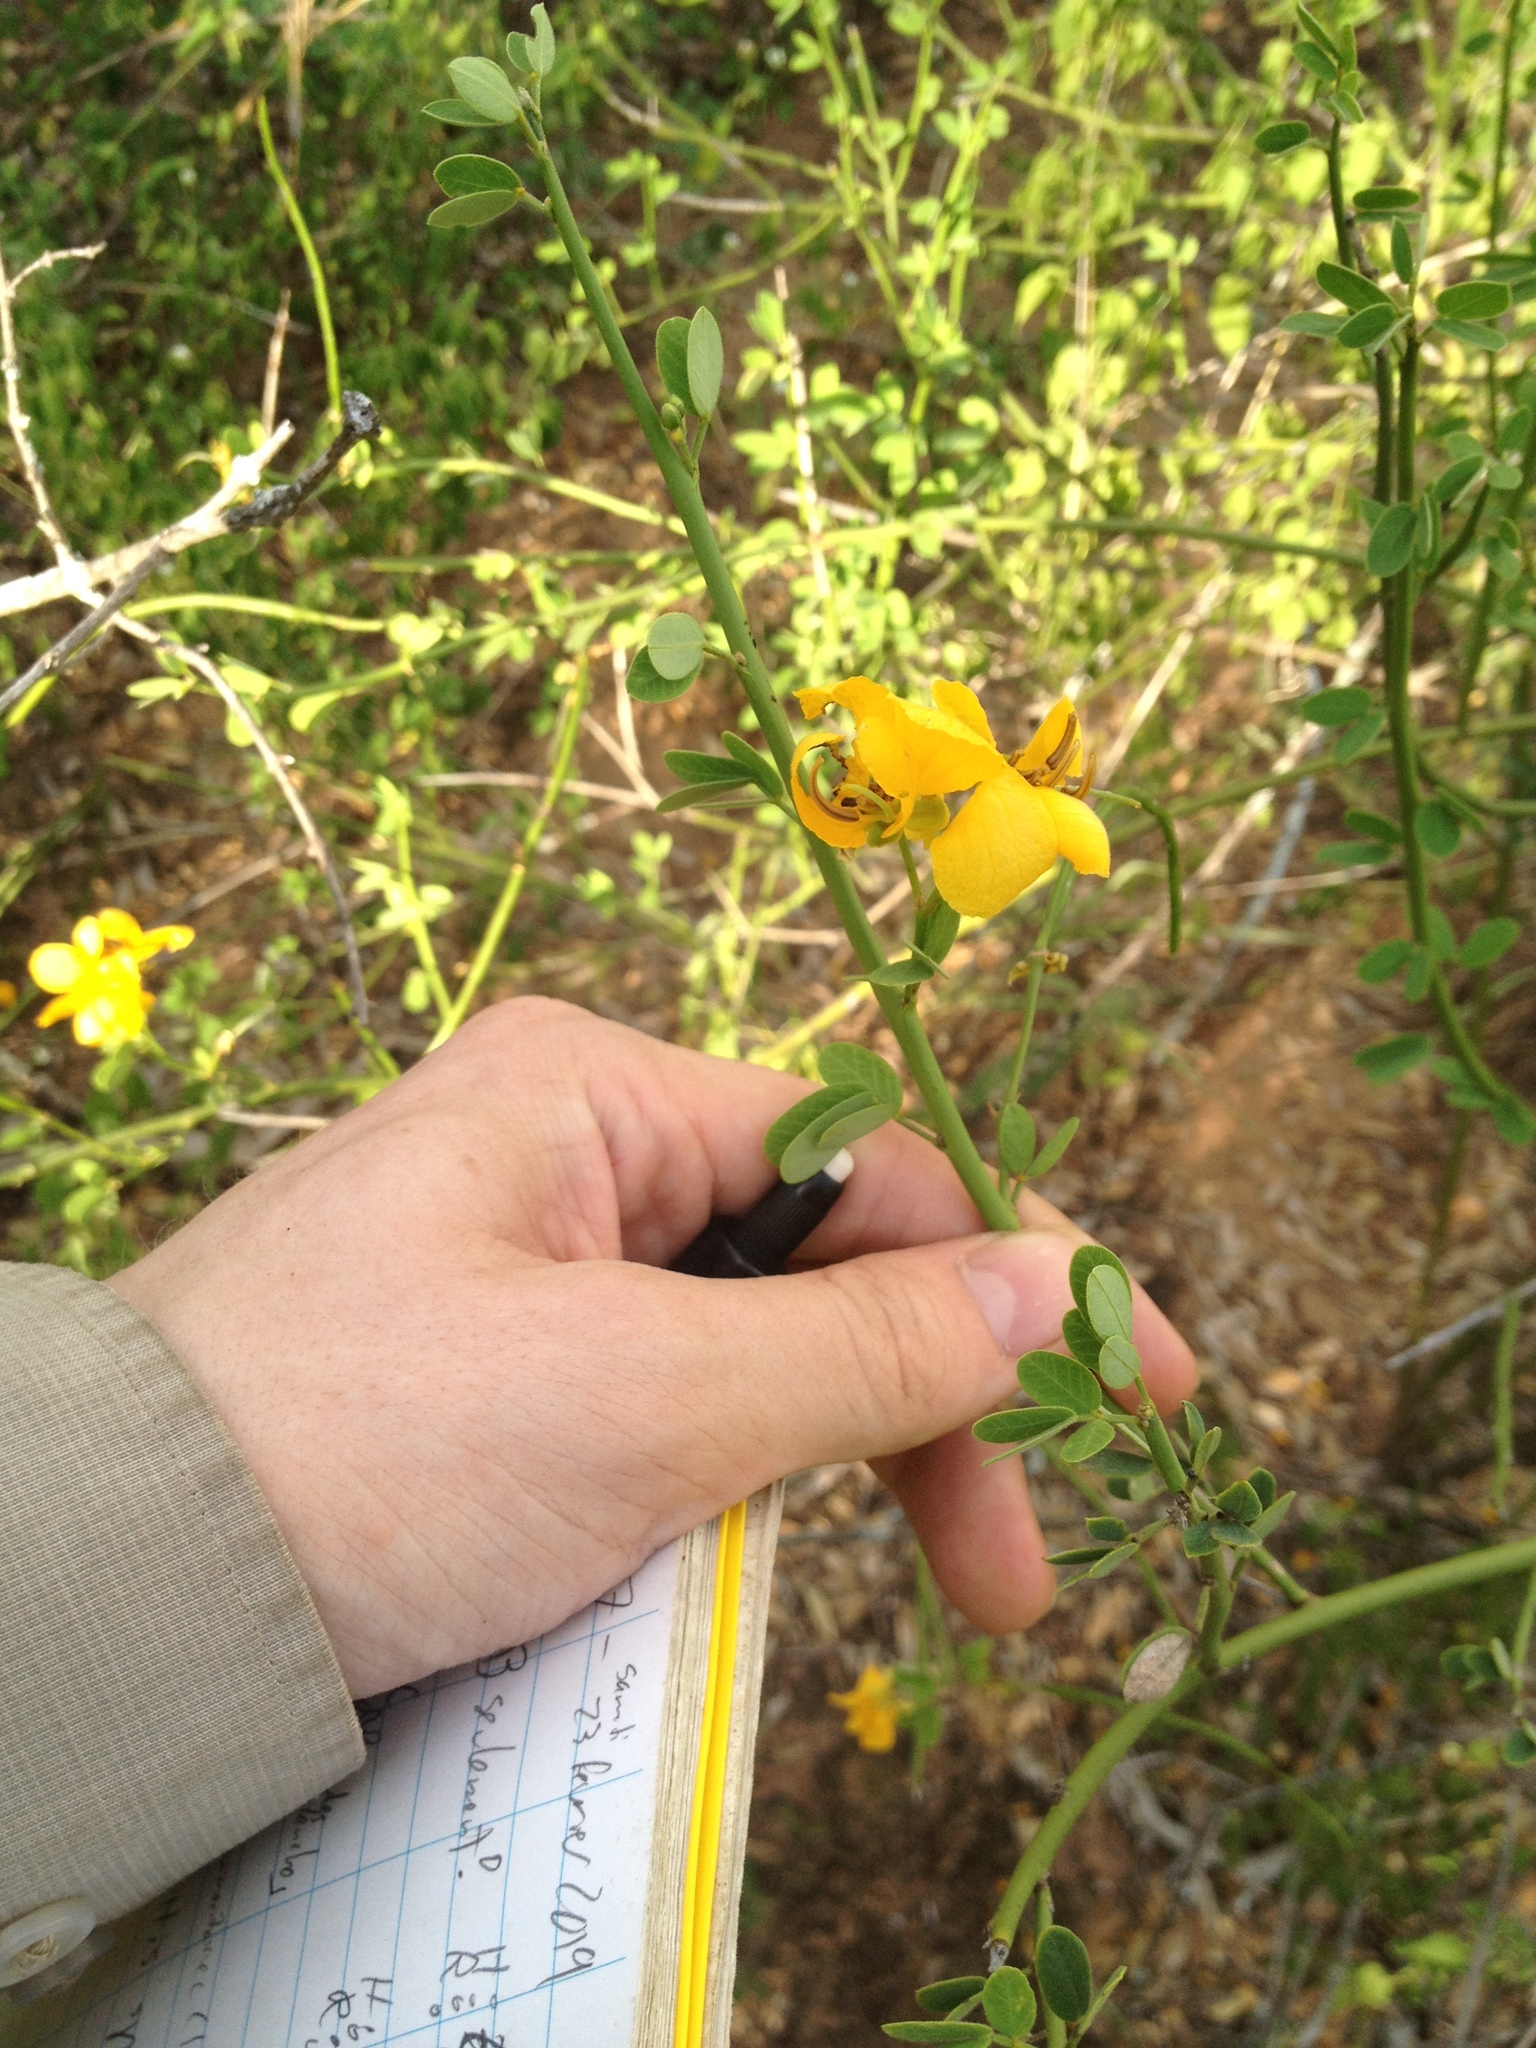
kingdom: Plantae
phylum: Tracheophyta
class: Magnoliopsida
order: Fabales
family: Fabaceae
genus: Senna
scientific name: Senna chloroclada
